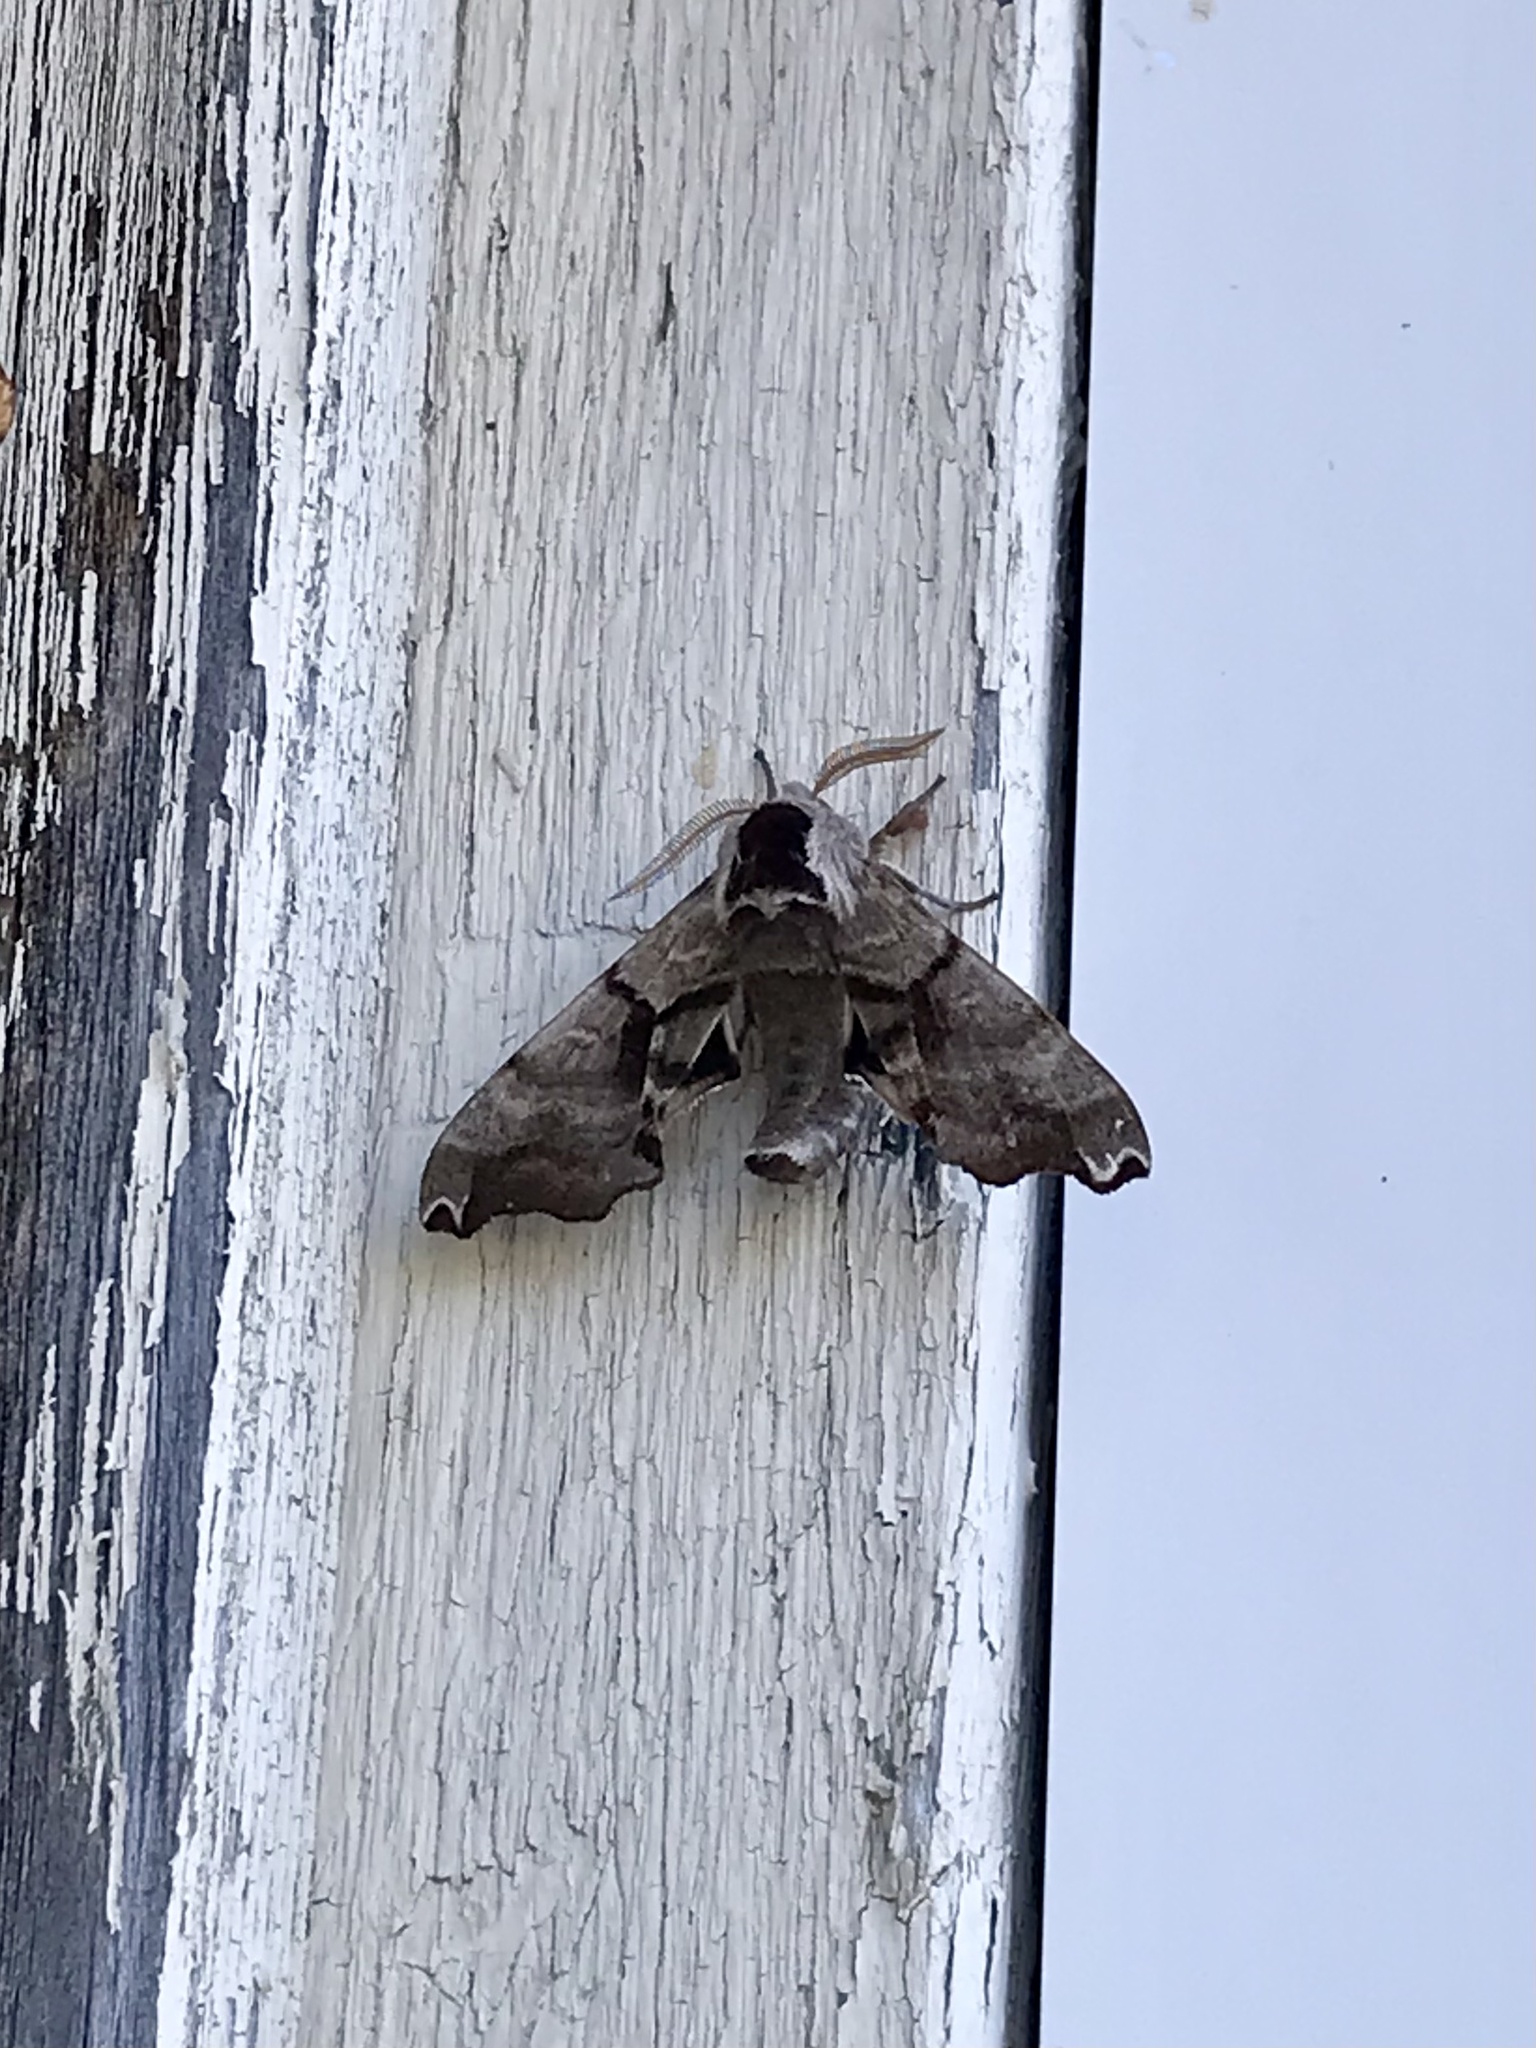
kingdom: Animalia
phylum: Arthropoda
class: Insecta
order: Lepidoptera
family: Sphingidae
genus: Smerinthus
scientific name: Smerinthus jamaicensis
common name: Twin spotted sphinx
